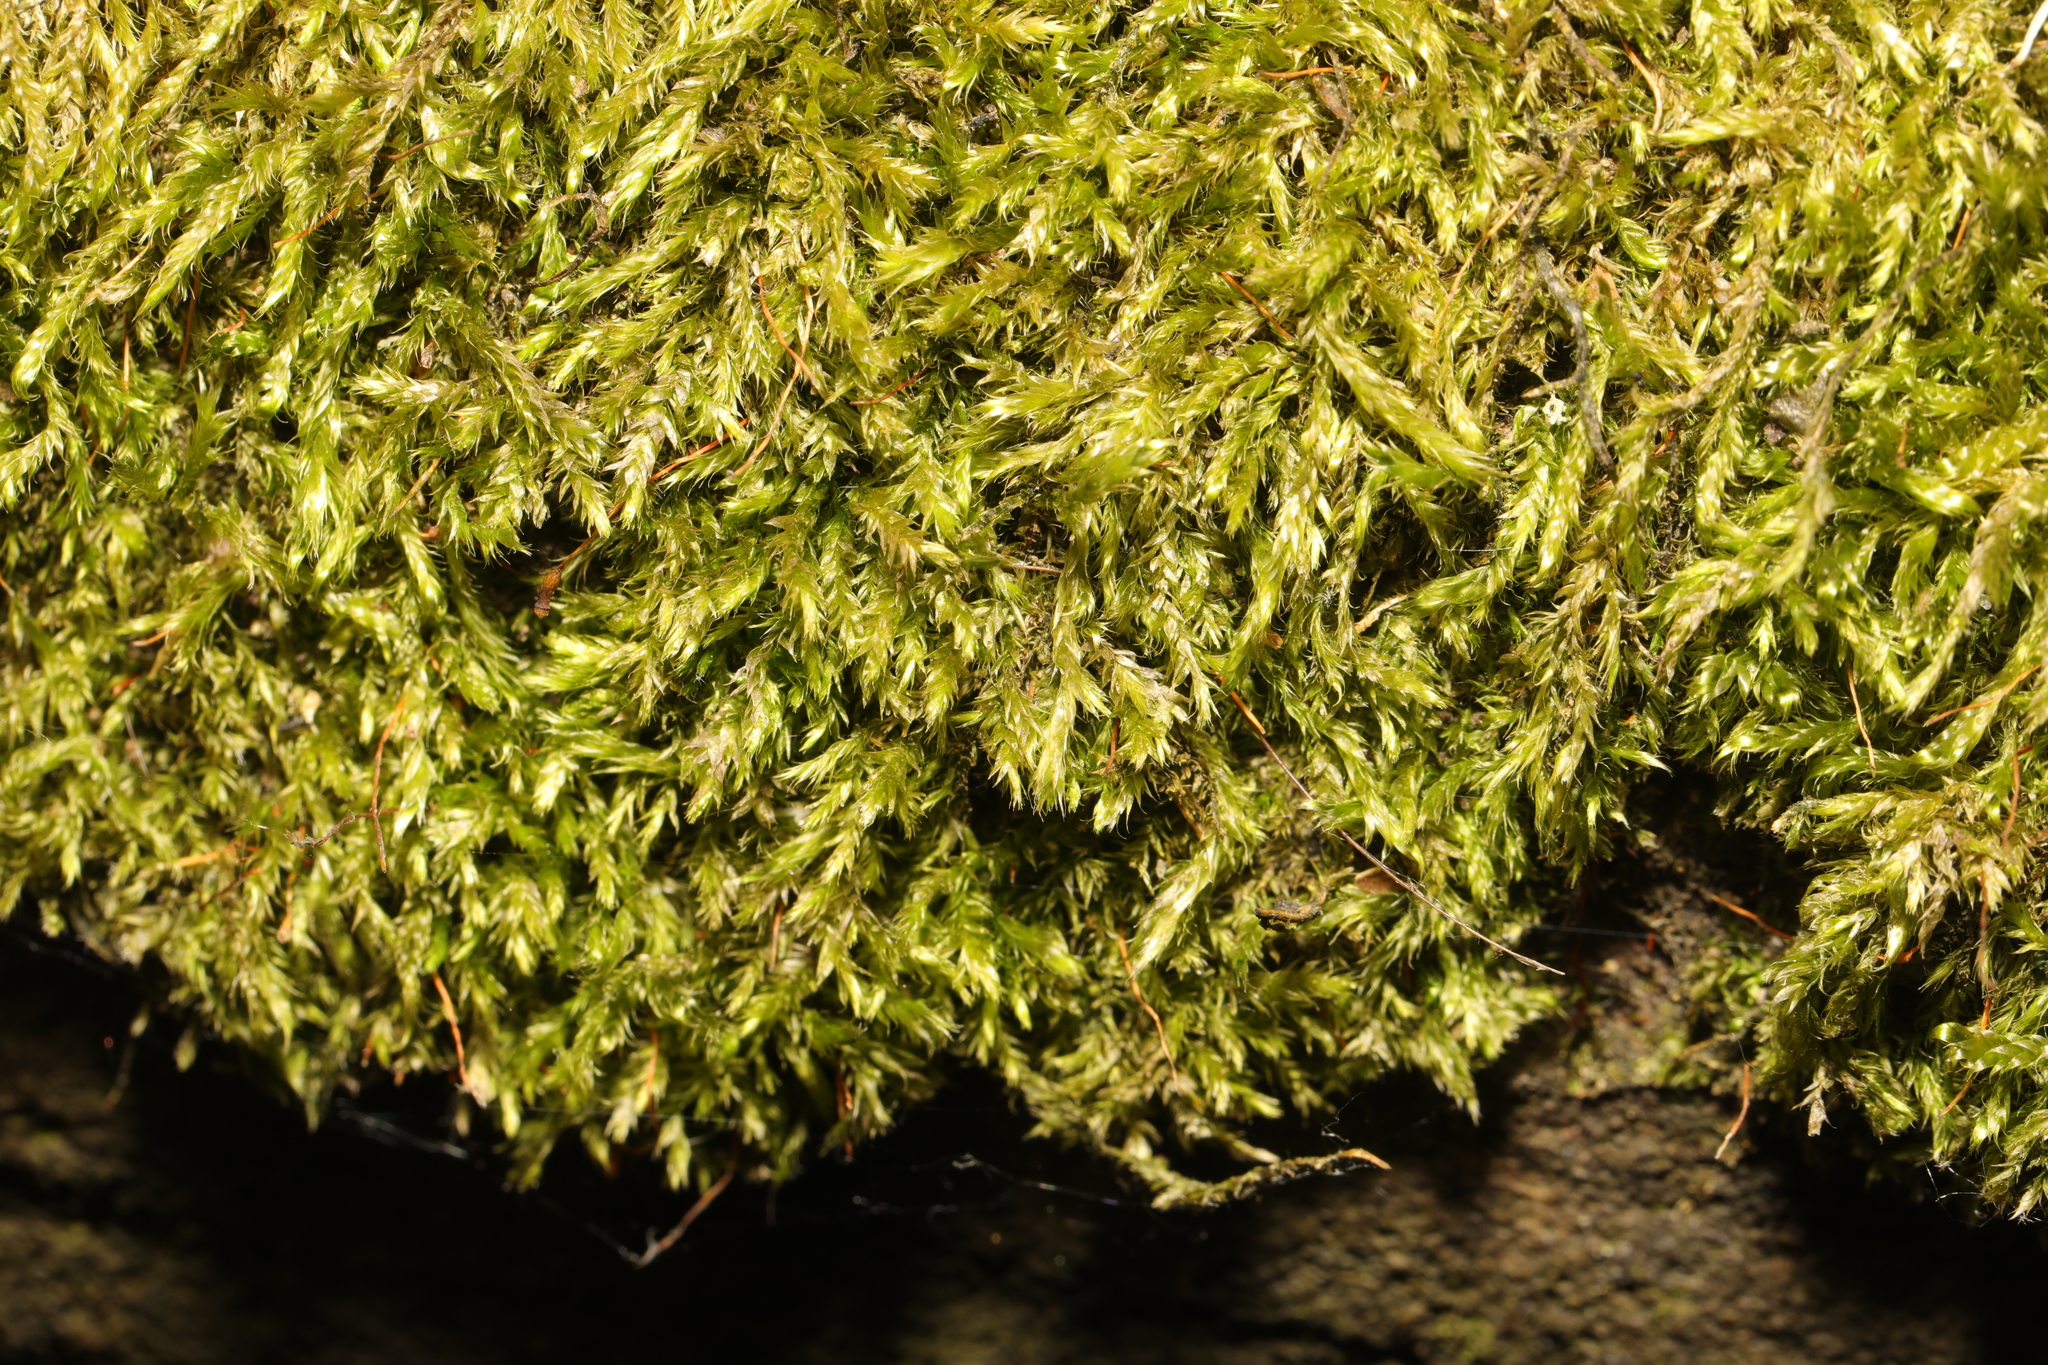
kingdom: Plantae
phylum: Bryophyta
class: Bryopsida
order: Hypnales
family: Hypnaceae
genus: Hypnum
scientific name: Hypnum cupressiforme
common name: Cypress-leaved plait-moss
